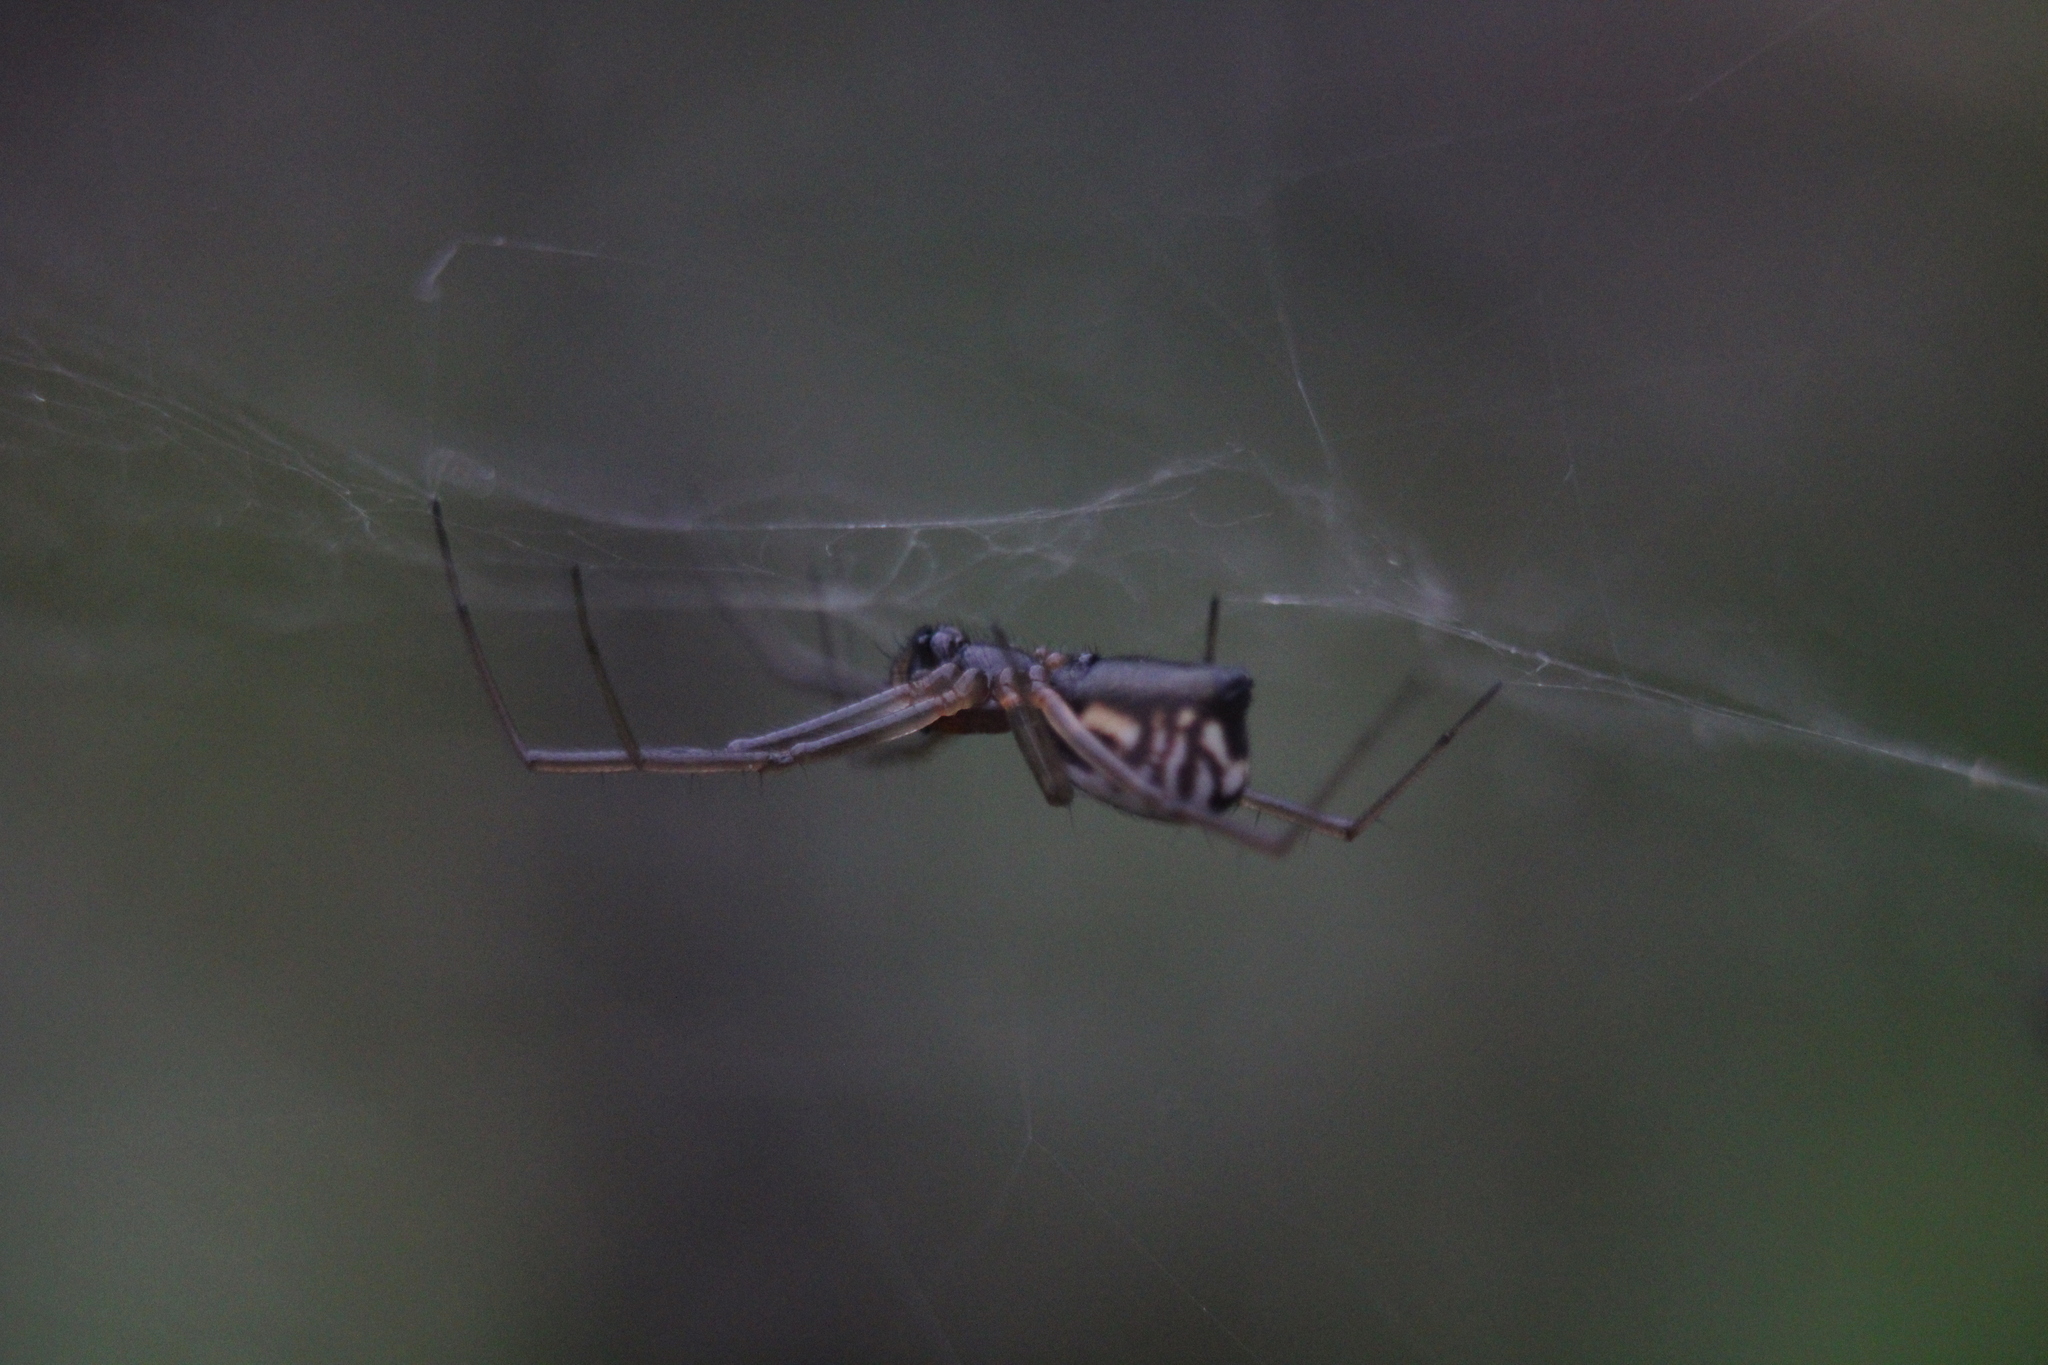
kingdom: Animalia
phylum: Arthropoda
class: Arachnida
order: Araneae
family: Linyphiidae
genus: Frontinella
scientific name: Frontinella pyramitela
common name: Bowl-and-doily spider
